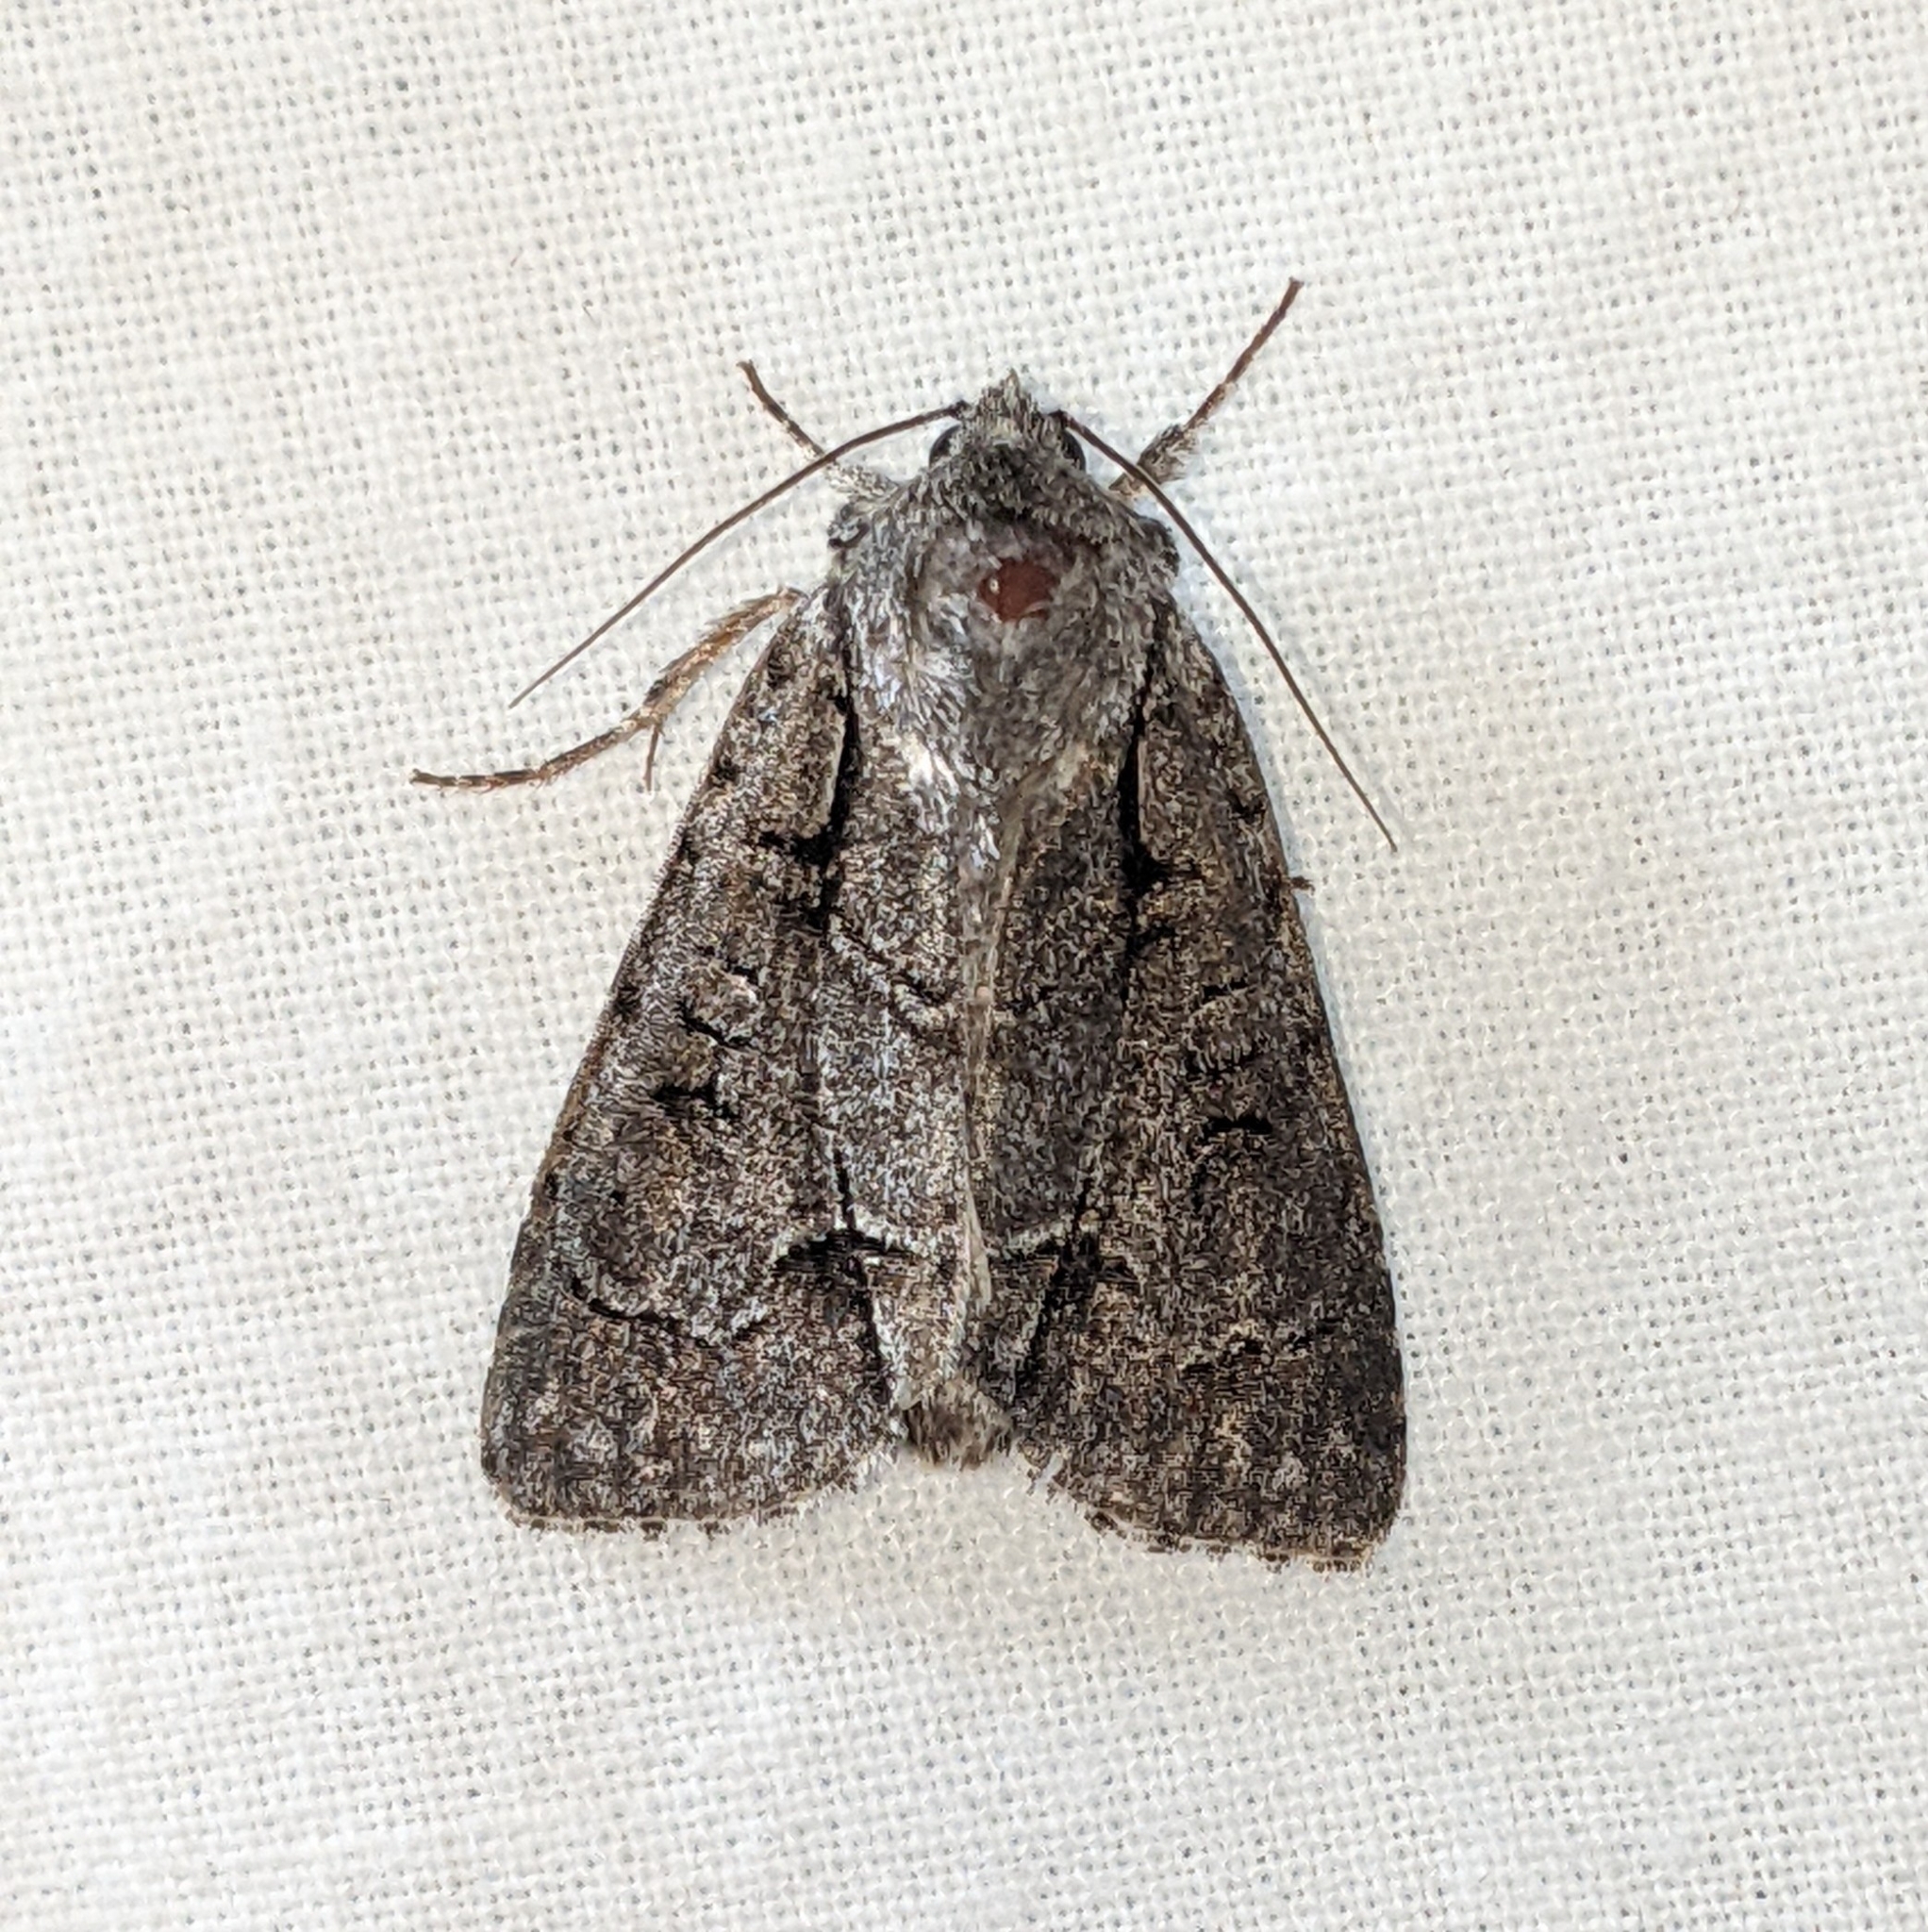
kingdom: Animalia
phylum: Arthropoda
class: Insecta
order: Lepidoptera
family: Noctuidae
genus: Acronicta
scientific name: Acronicta radcliffei
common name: Radcliffe's dagger
